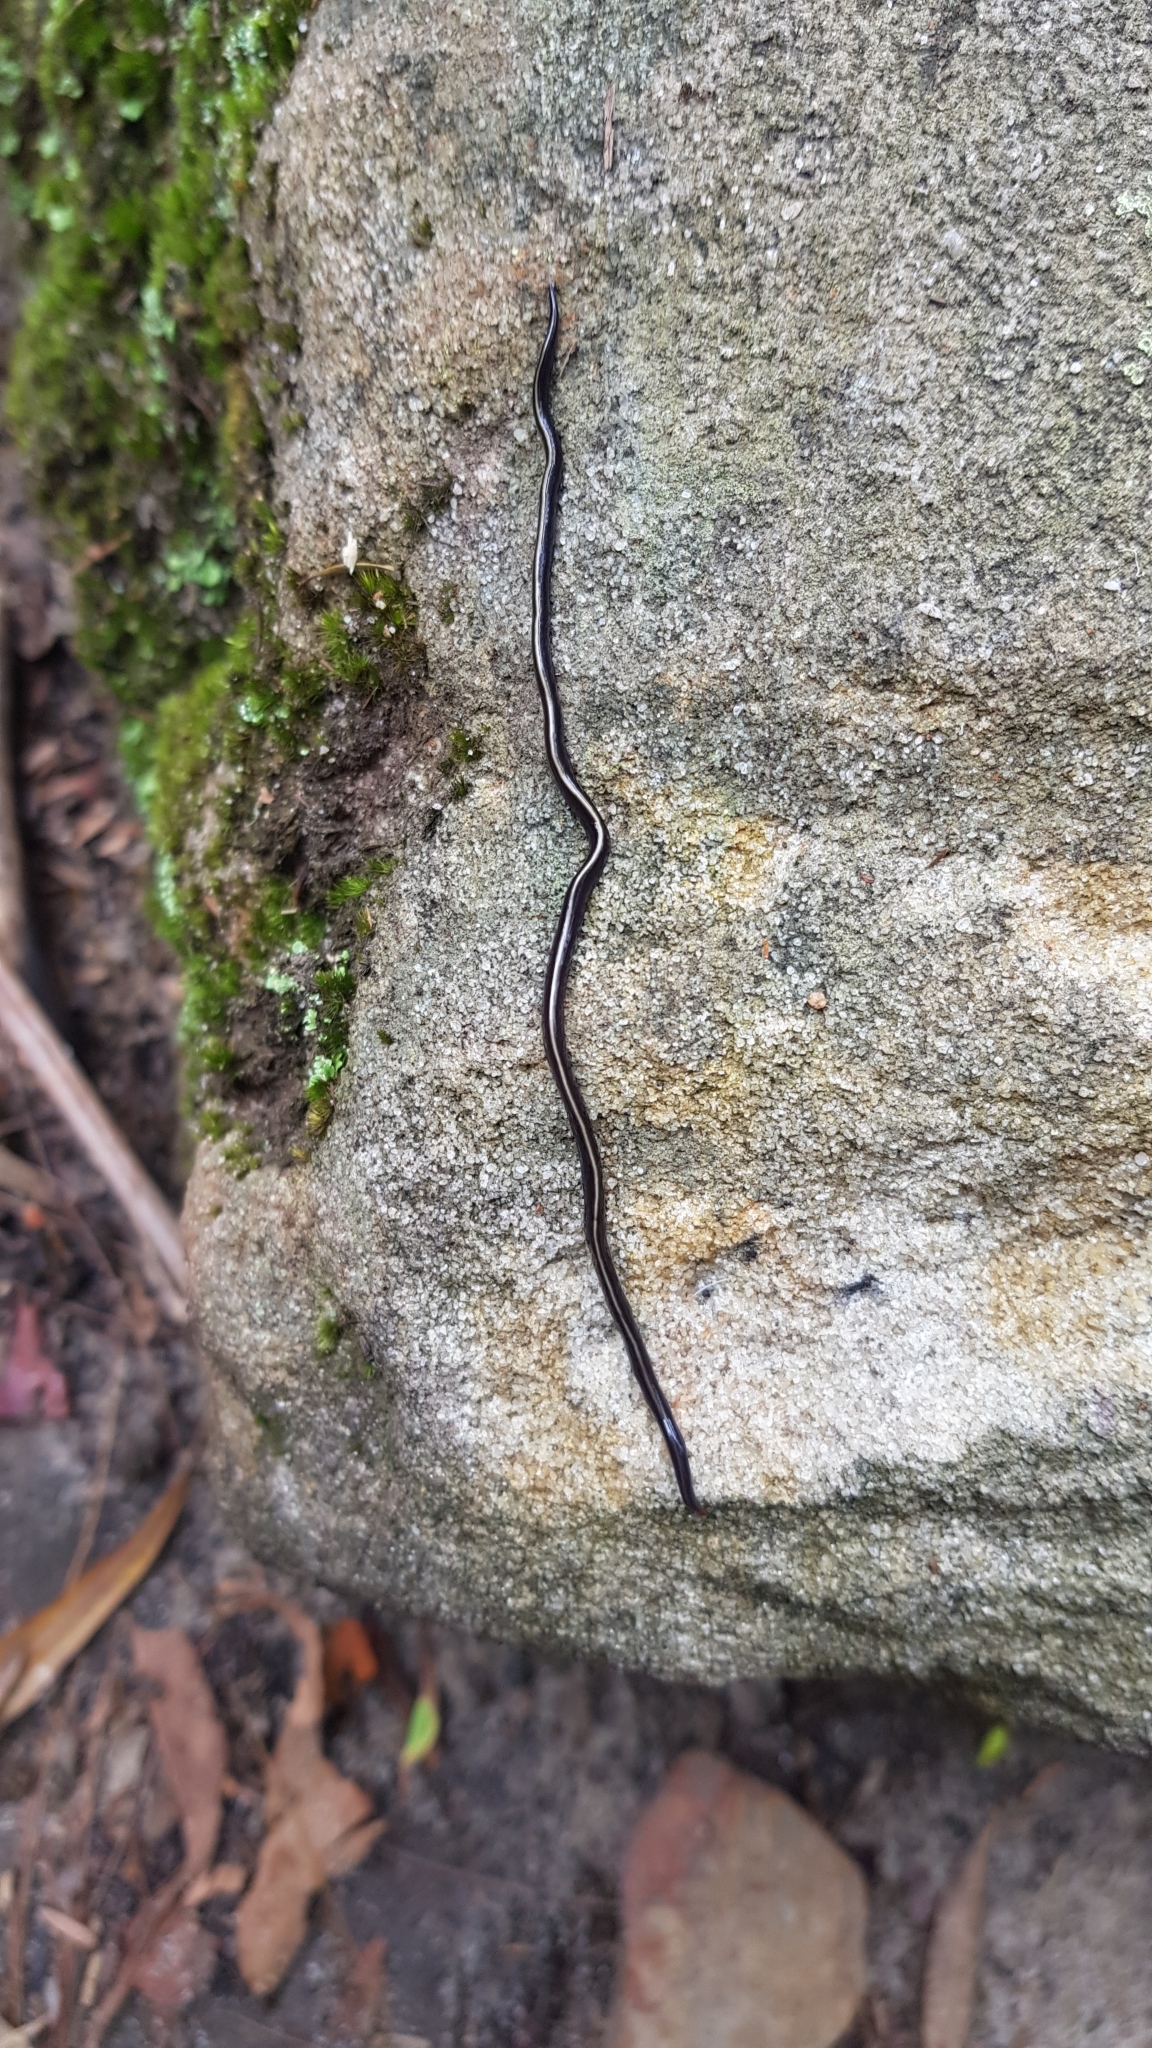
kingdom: Animalia
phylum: Platyhelminthes
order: Tricladida
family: Geoplanidae
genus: Caenoplana
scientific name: Caenoplana coerulea
